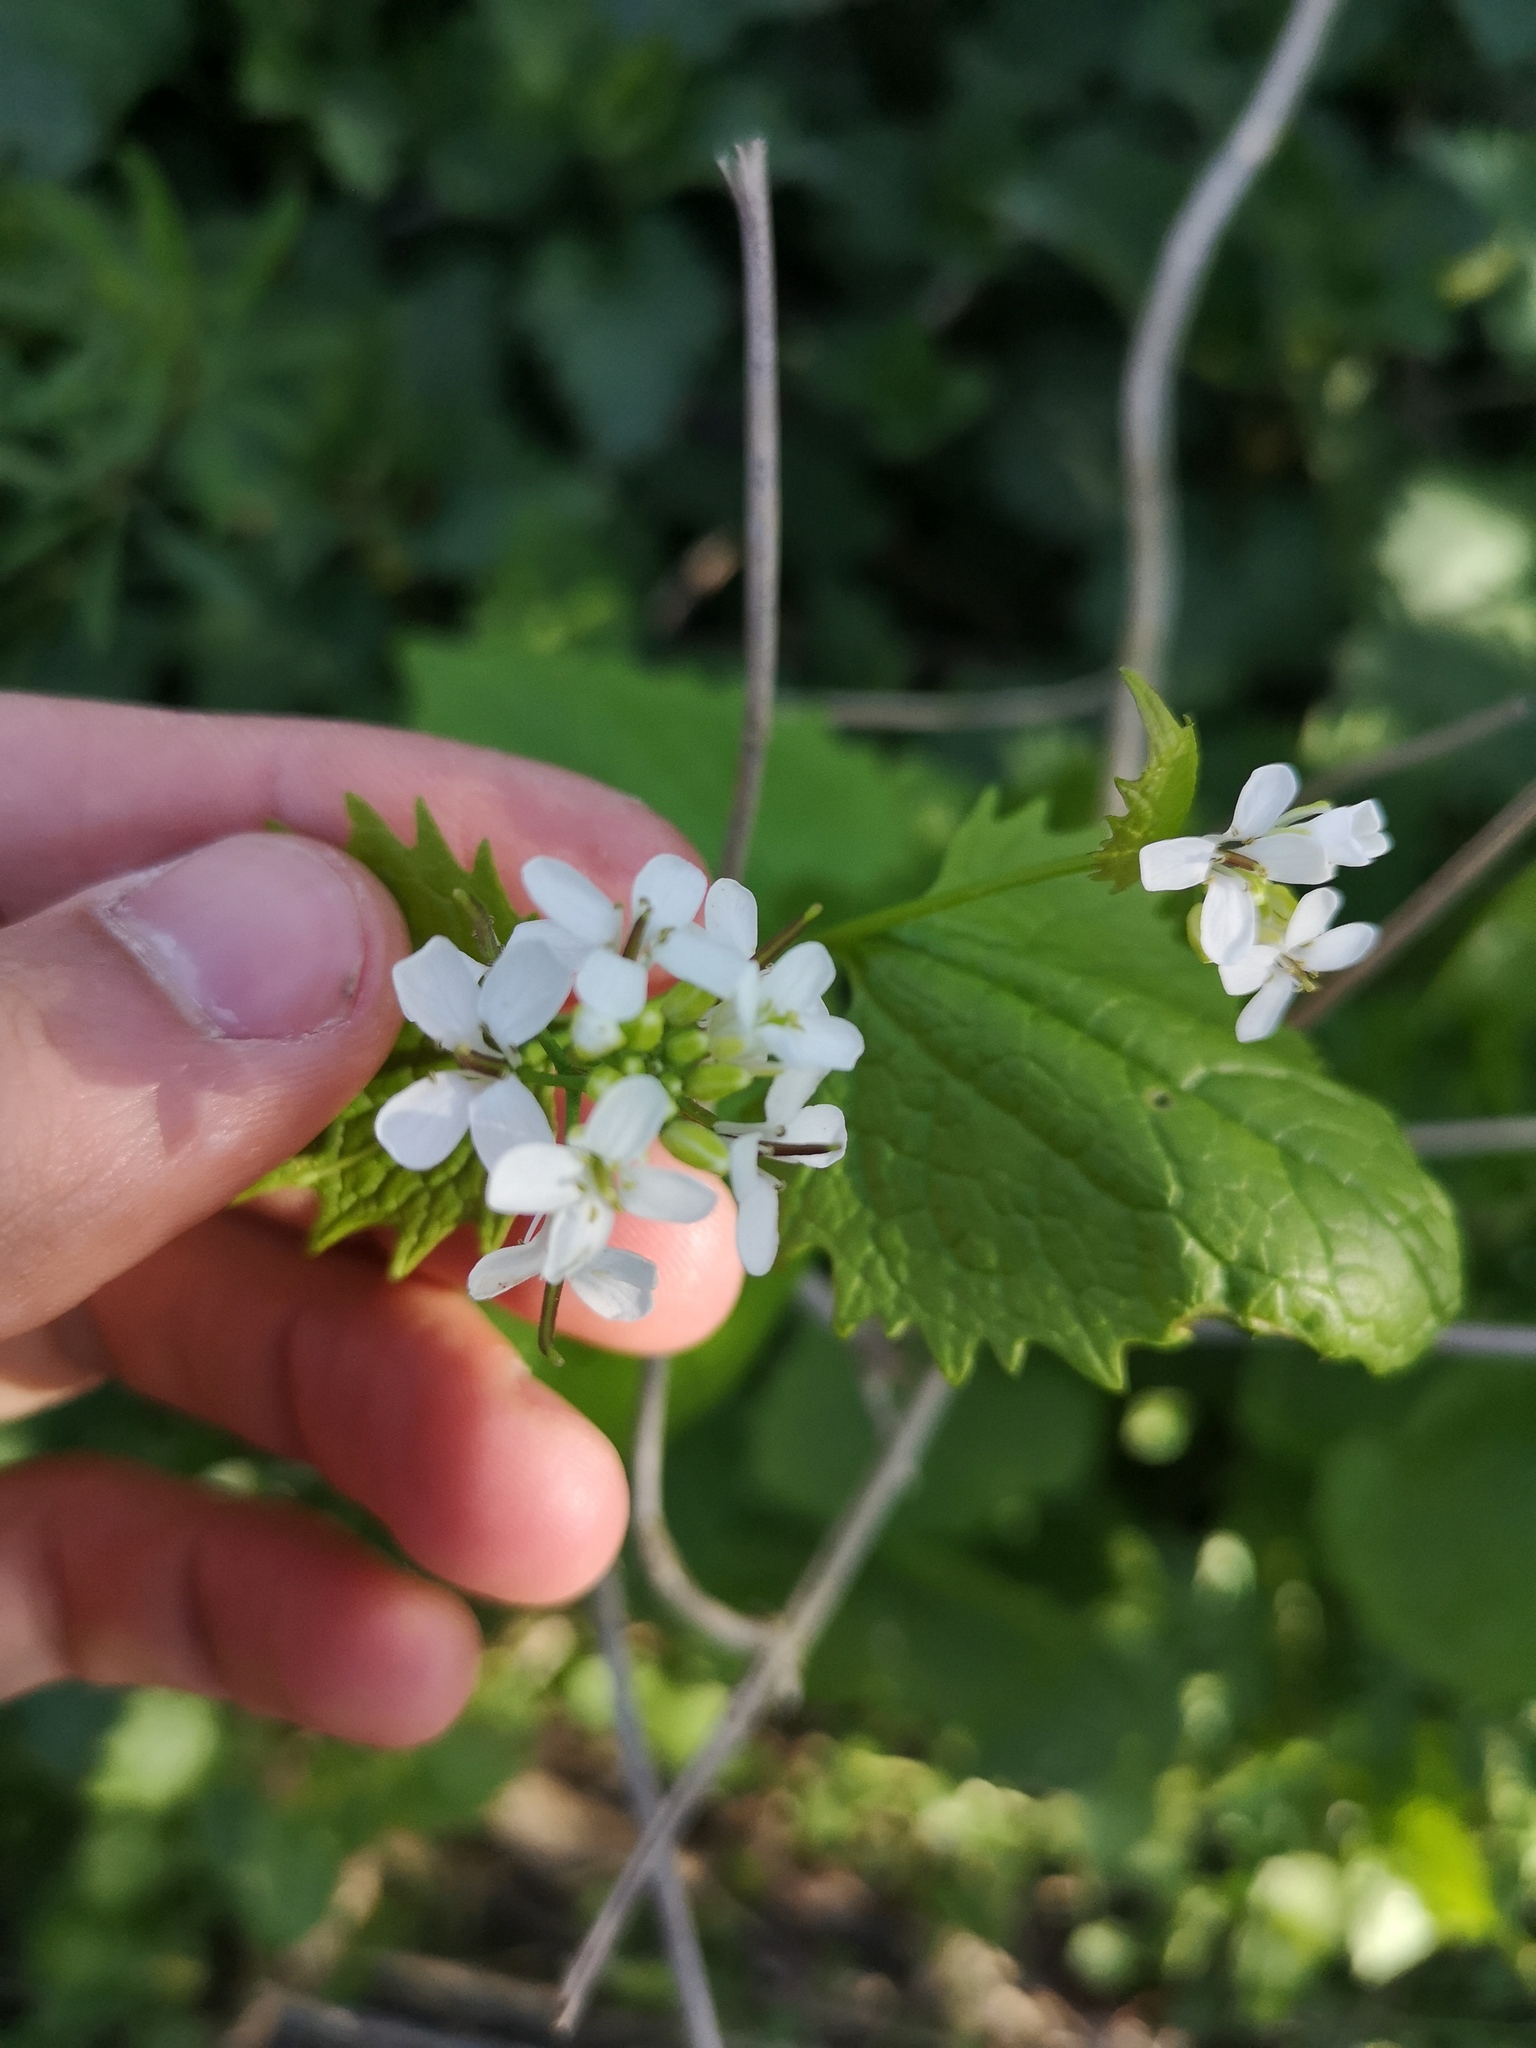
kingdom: Plantae
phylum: Tracheophyta
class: Magnoliopsida
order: Brassicales
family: Brassicaceae
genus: Alliaria
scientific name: Alliaria petiolata
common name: Garlic mustard
